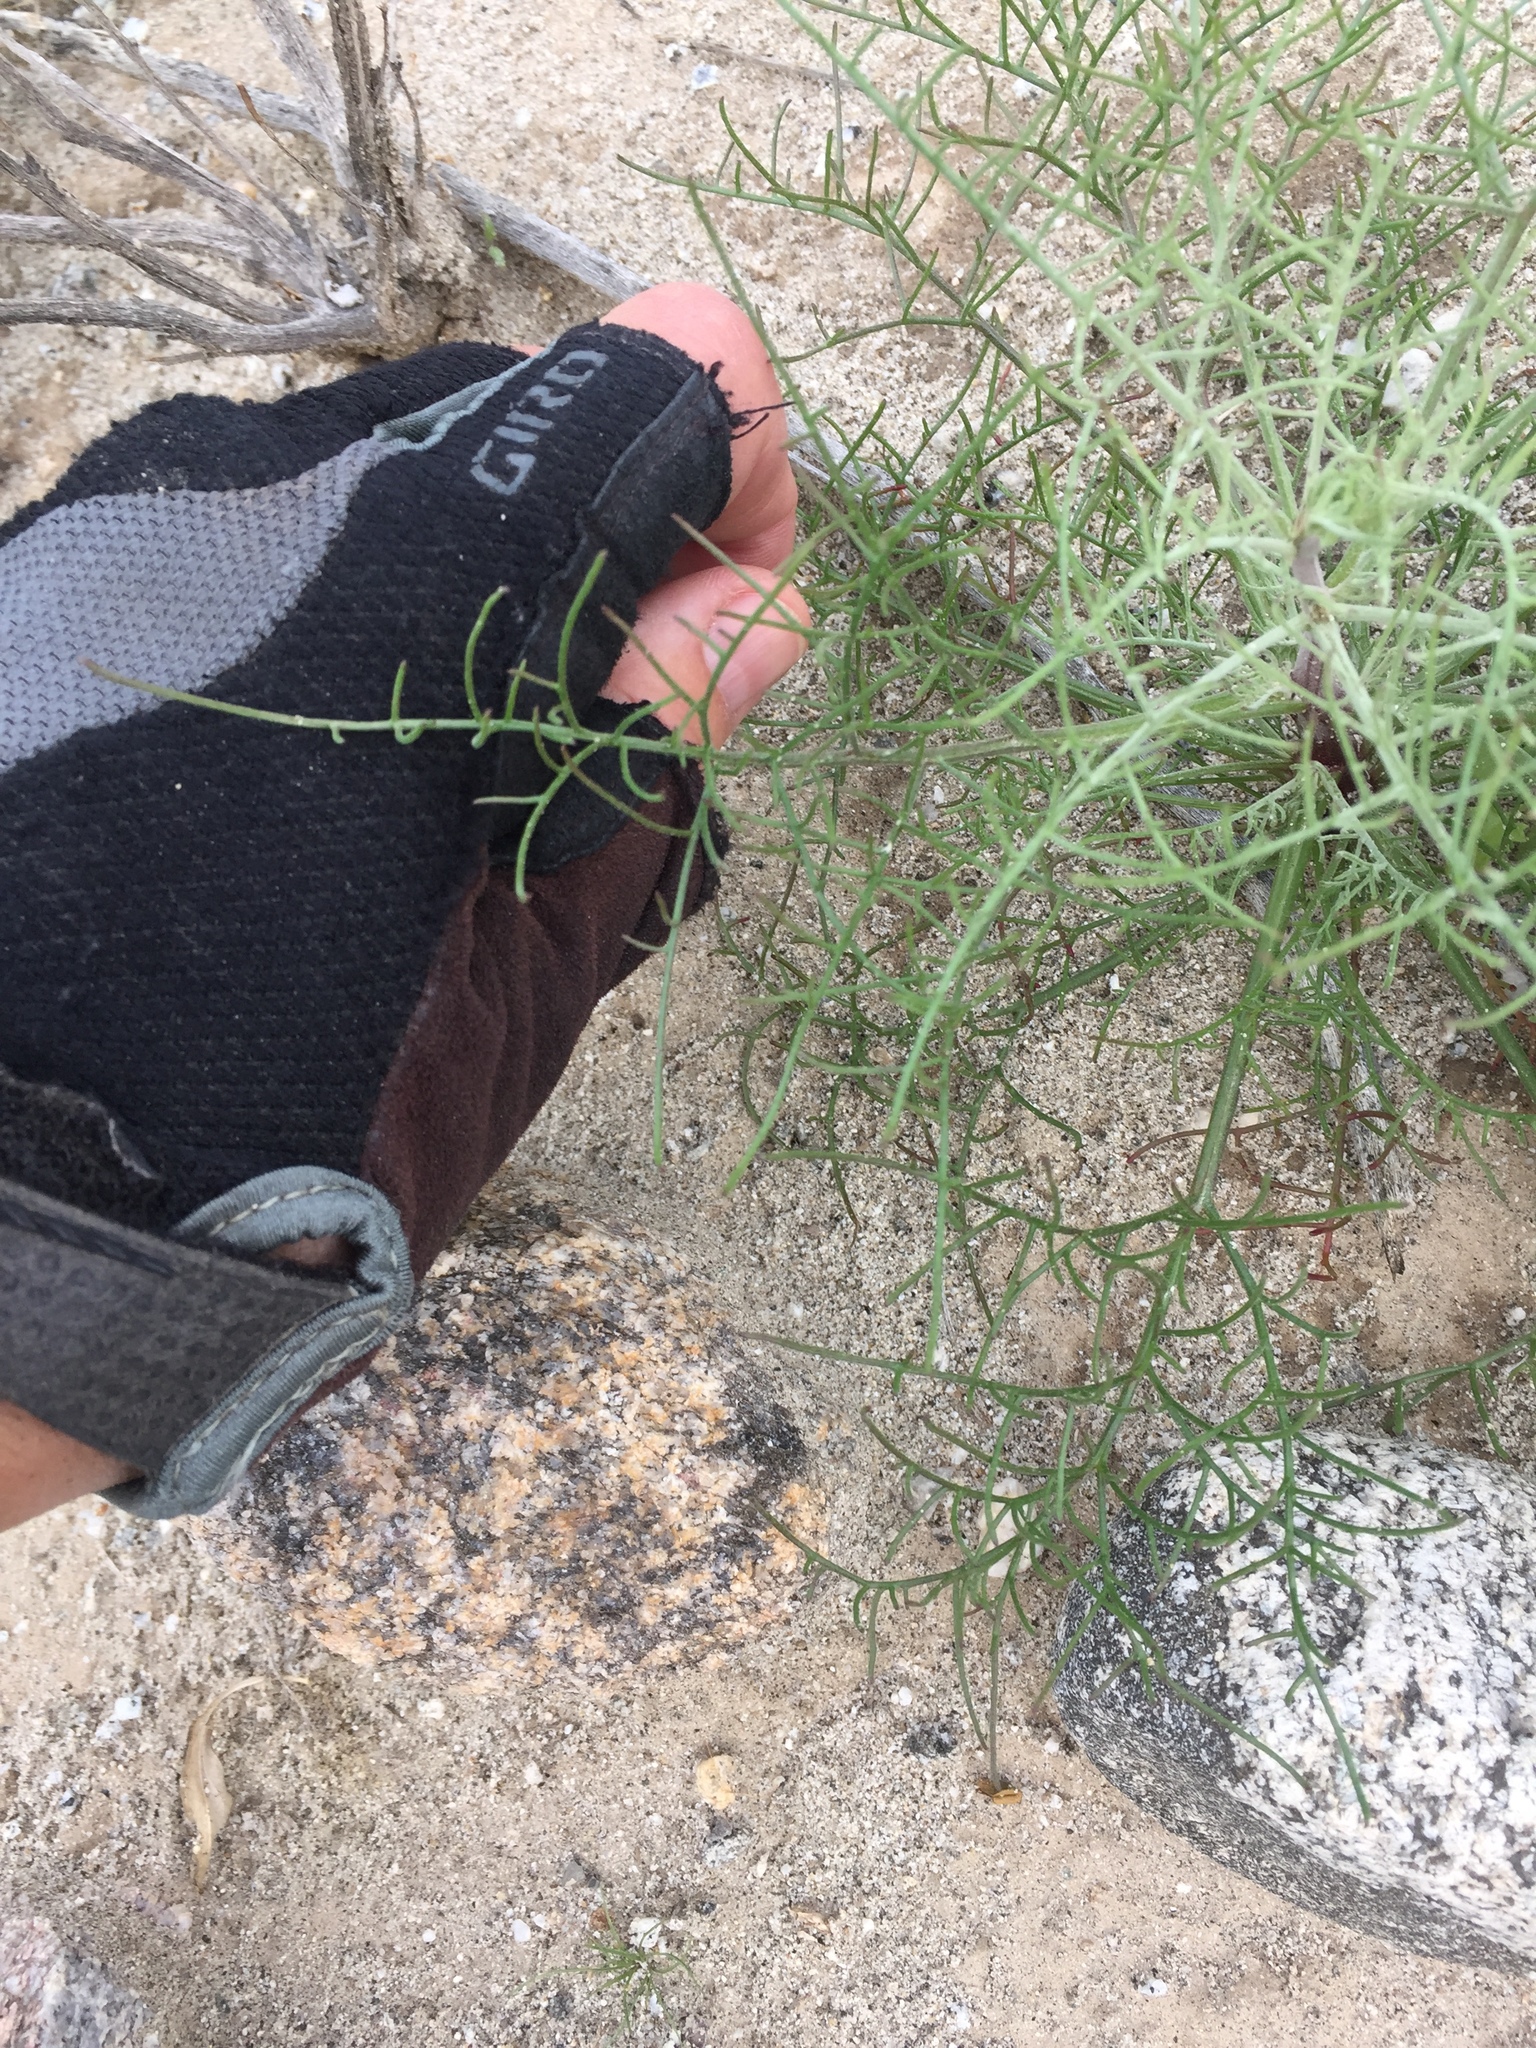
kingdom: Plantae
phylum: Tracheophyta
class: Magnoliopsida
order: Asterales
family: Asteraceae
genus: Chaenactis
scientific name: Chaenactis carphoclinia
